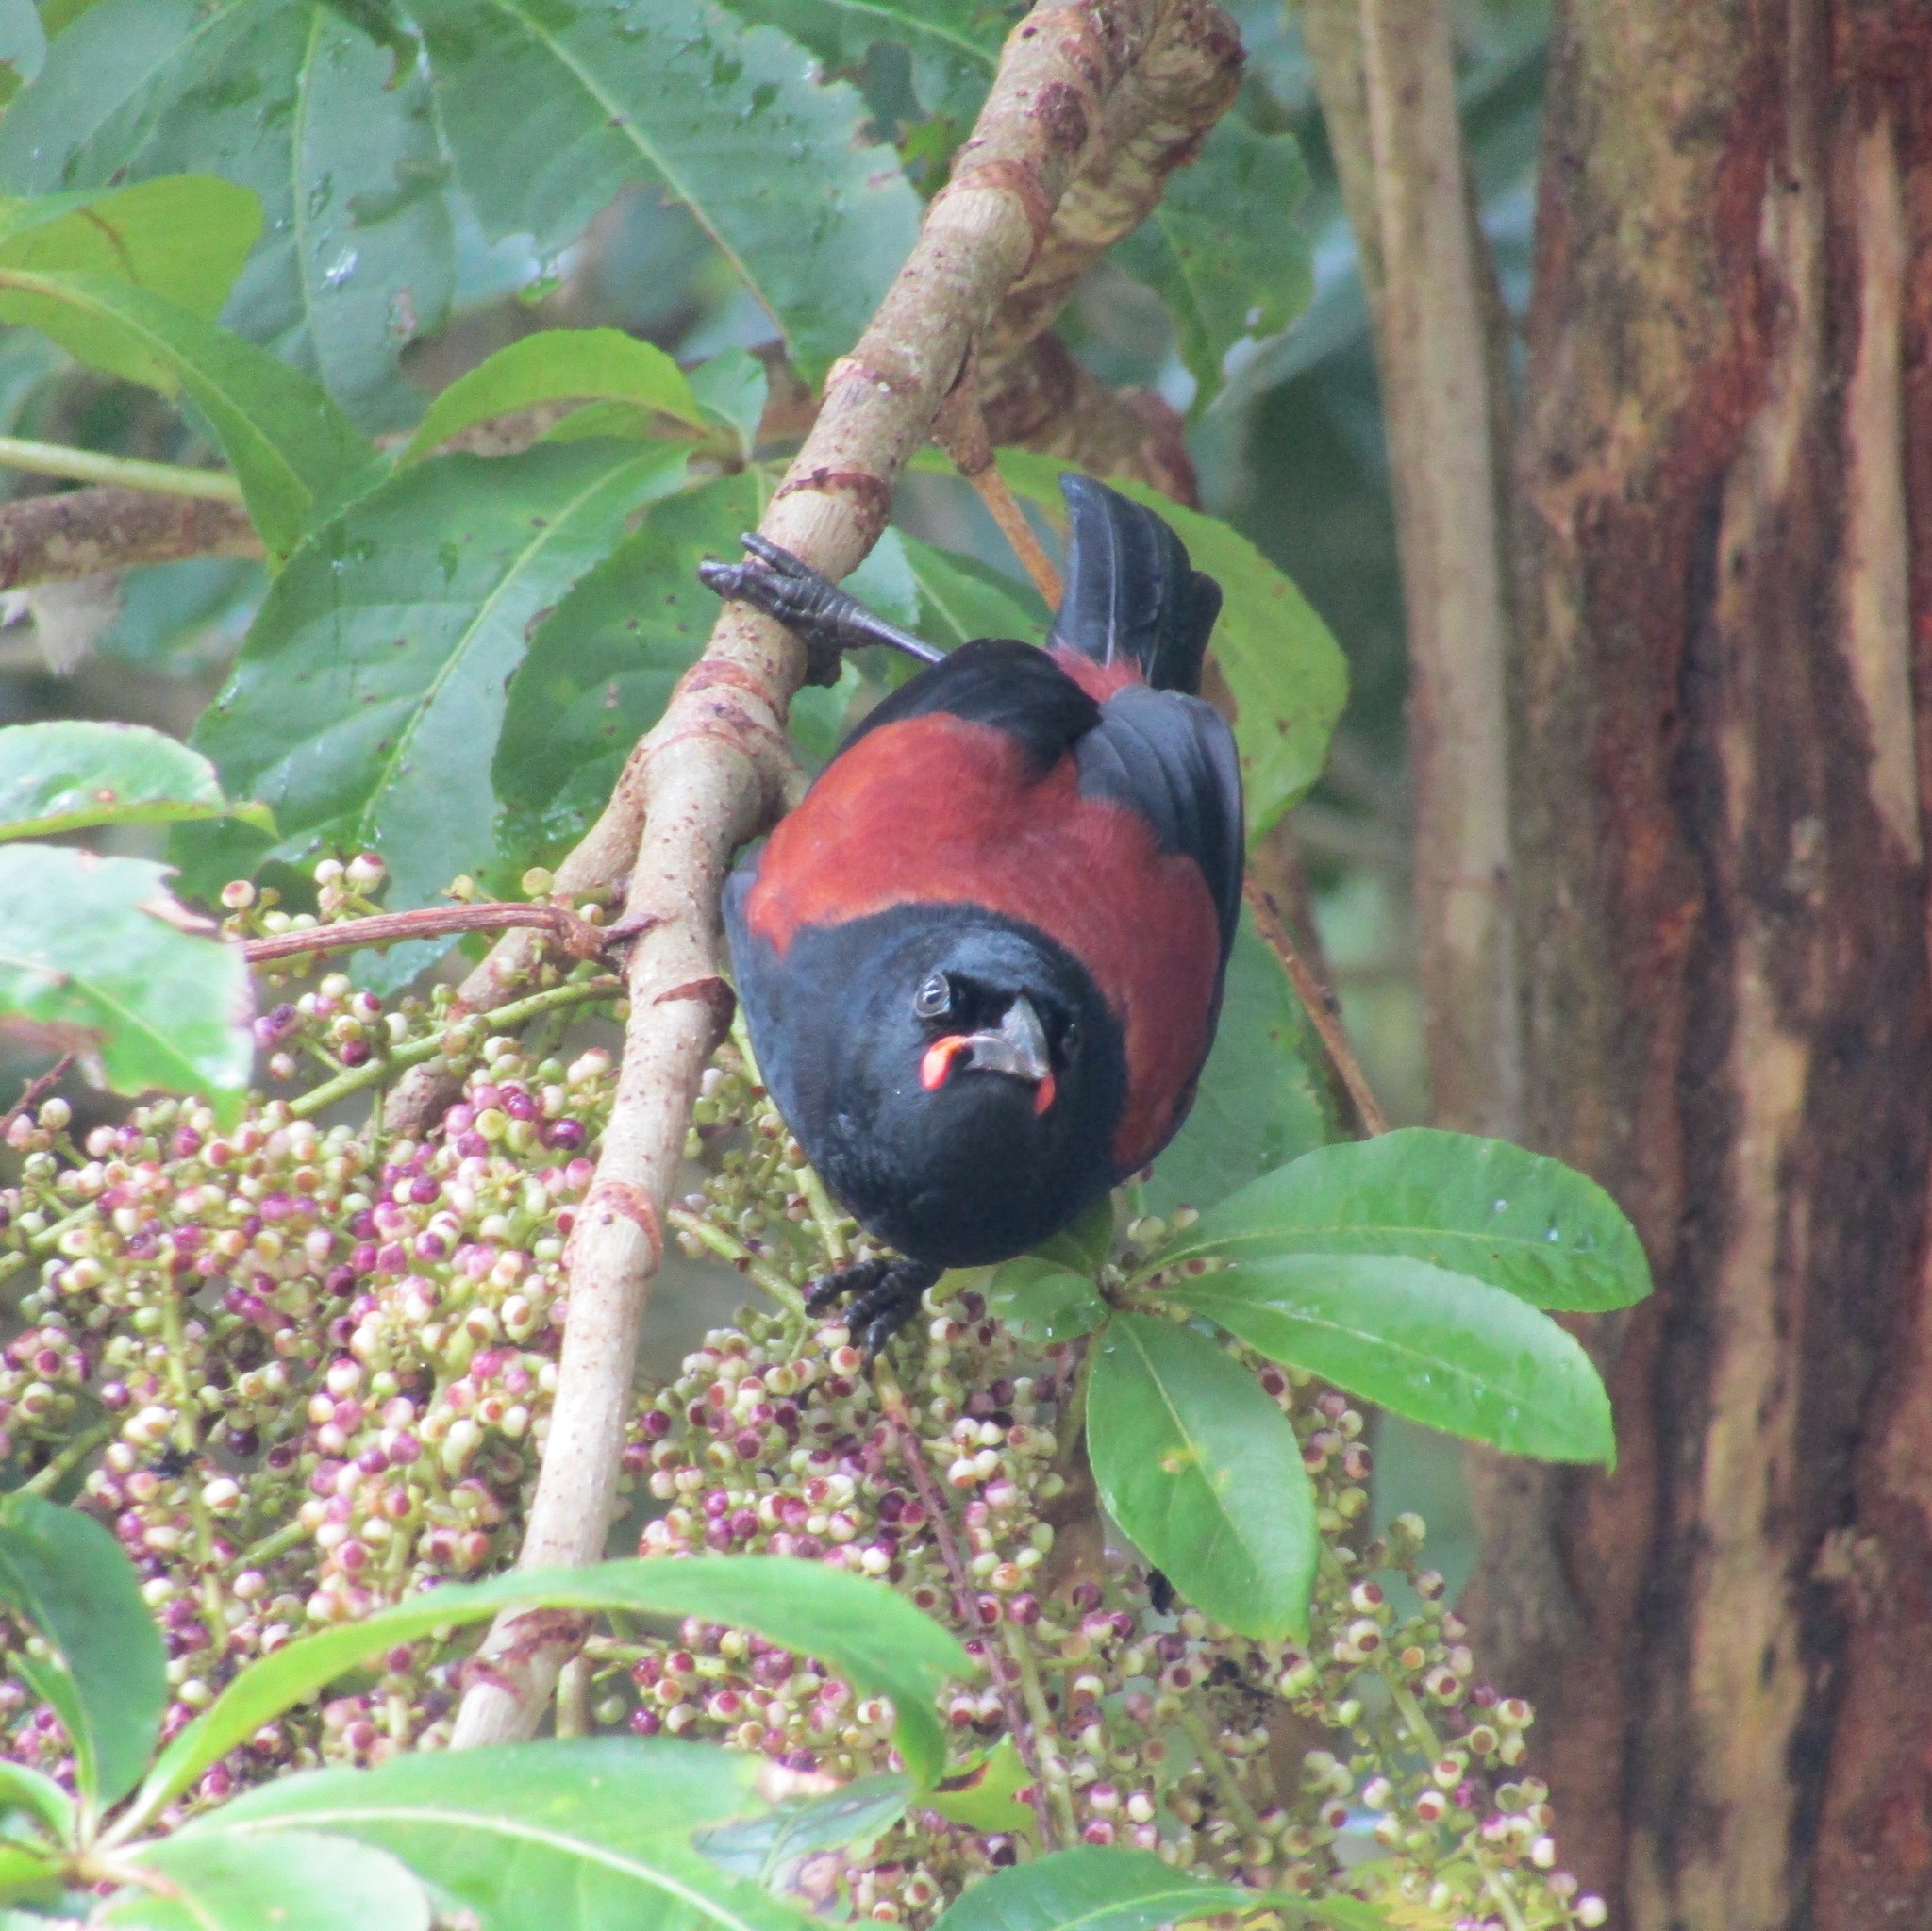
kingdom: Animalia
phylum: Chordata
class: Aves
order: Passeriformes
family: Callaeatidae
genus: Philesturnus
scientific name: Philesturnus carunculatus
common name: South island saddleback
